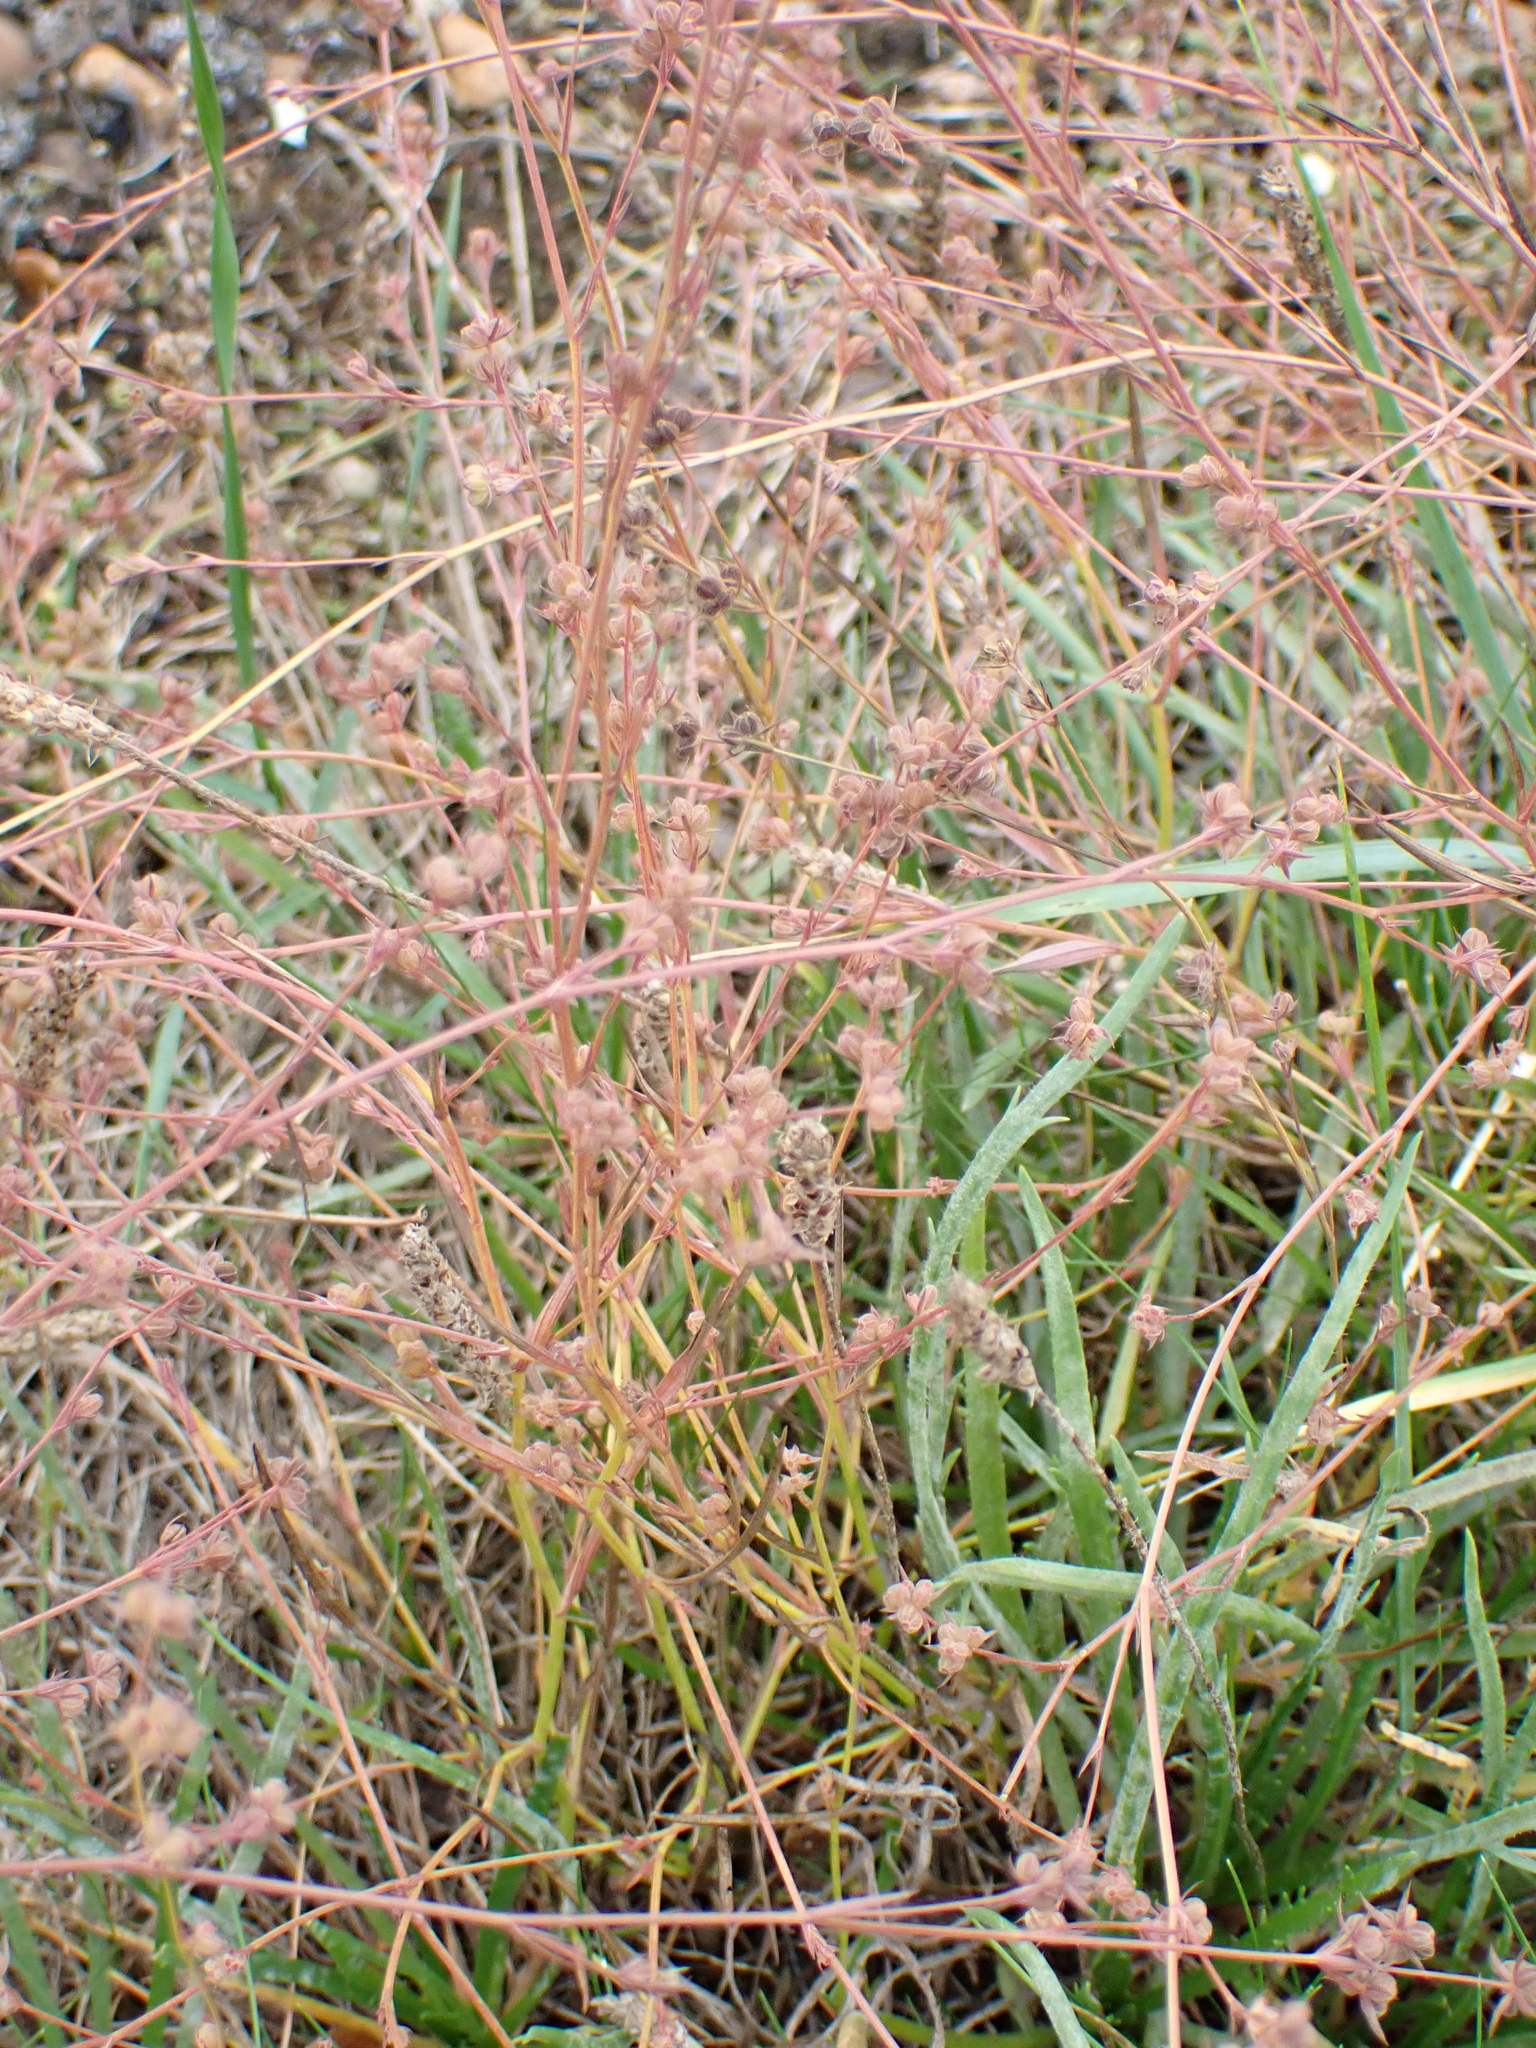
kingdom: Plantae
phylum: Tracheophyta
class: Magnoliopsida
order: Apiales
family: Apiaceae
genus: Bupleurum
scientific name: Bupleurum tenuissimum
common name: Slender hare's-ear
